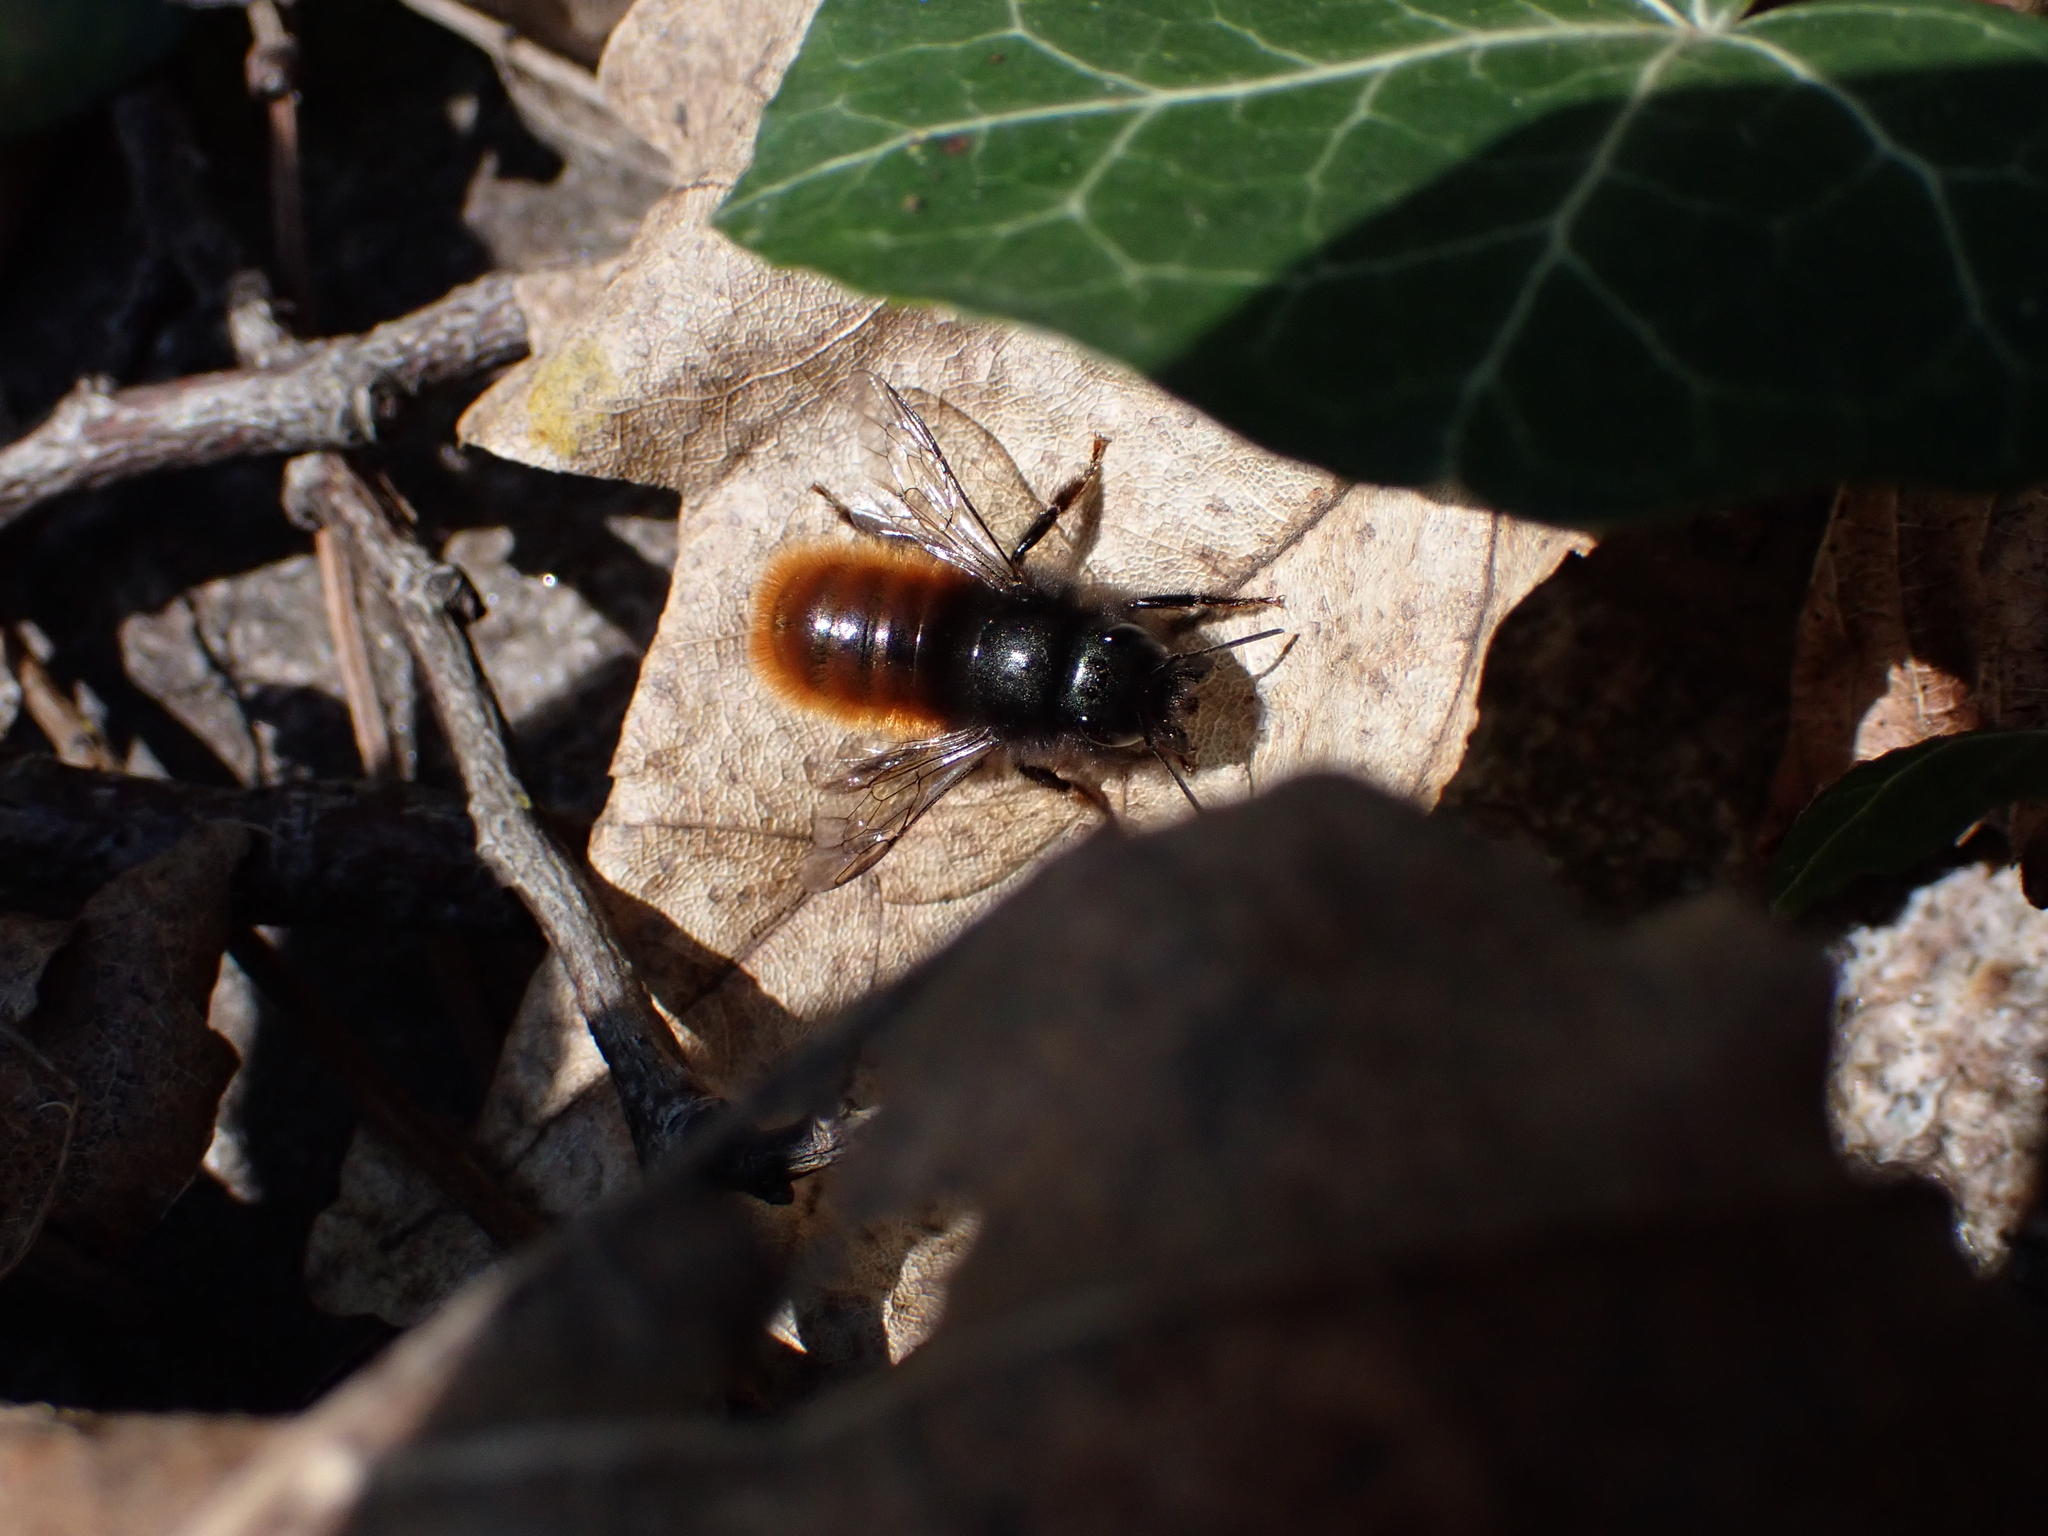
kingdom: Animalia
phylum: Arthropoda
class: Insecta
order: Hymenoptera
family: Megachilidae
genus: Osmia
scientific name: Osmia cornuta
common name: Mason bee
